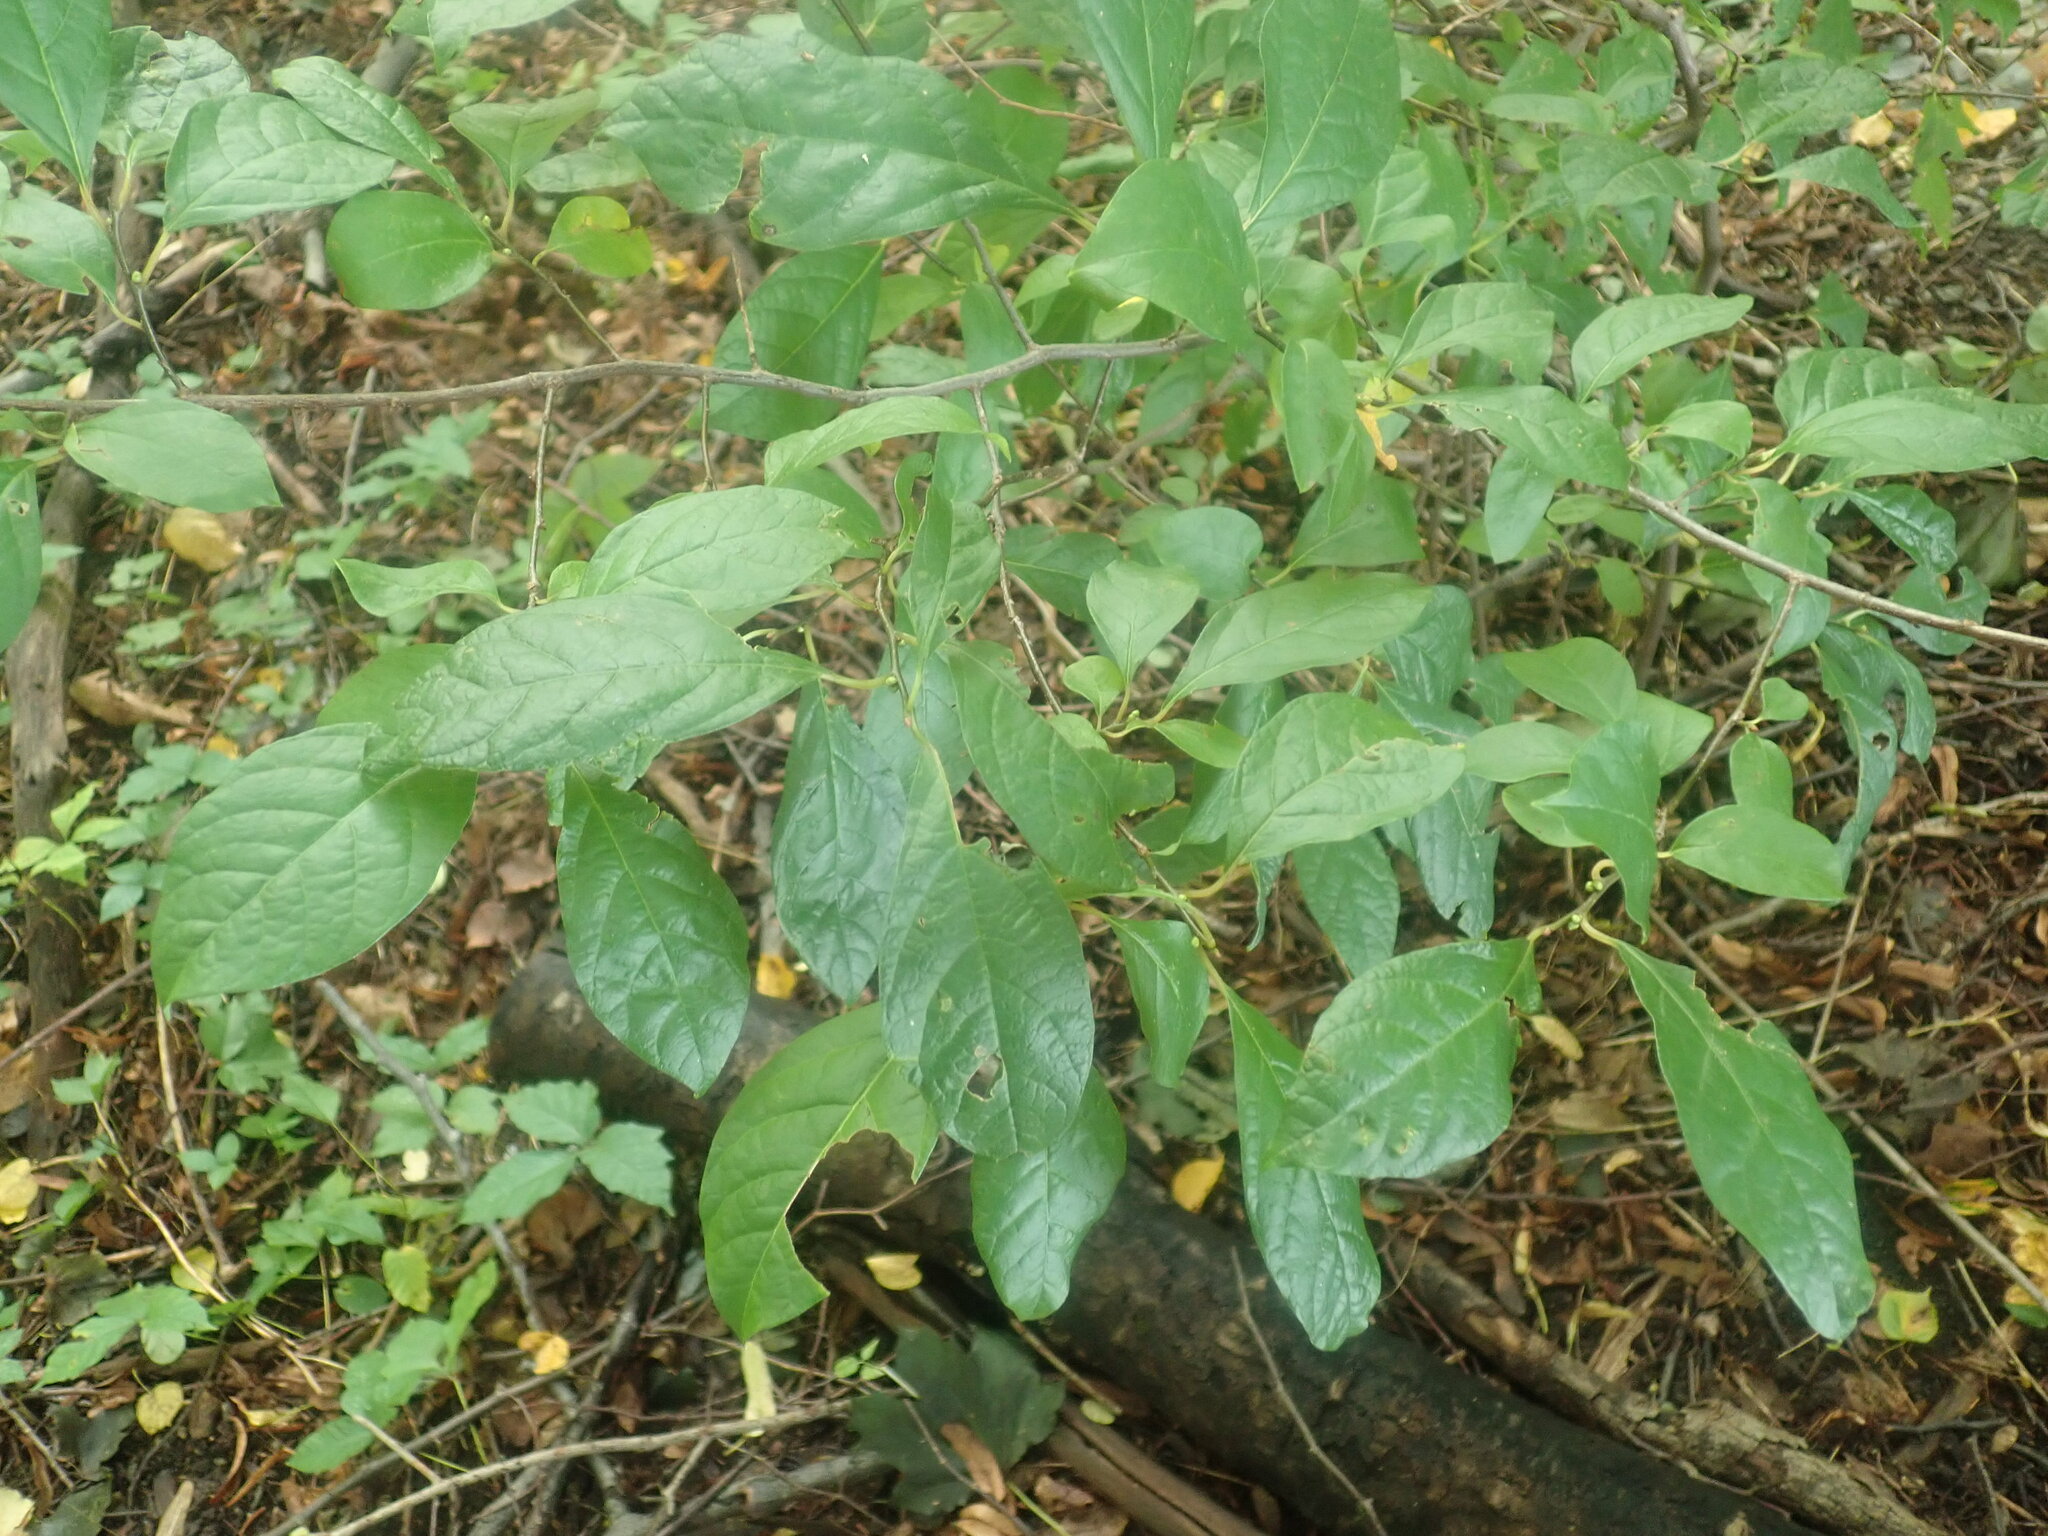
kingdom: Plantae
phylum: Tracheophyta
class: Magnoliopsida
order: Laurales
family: Lauraceae
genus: Lindera
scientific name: Lindera benzoin
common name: Spicebush
